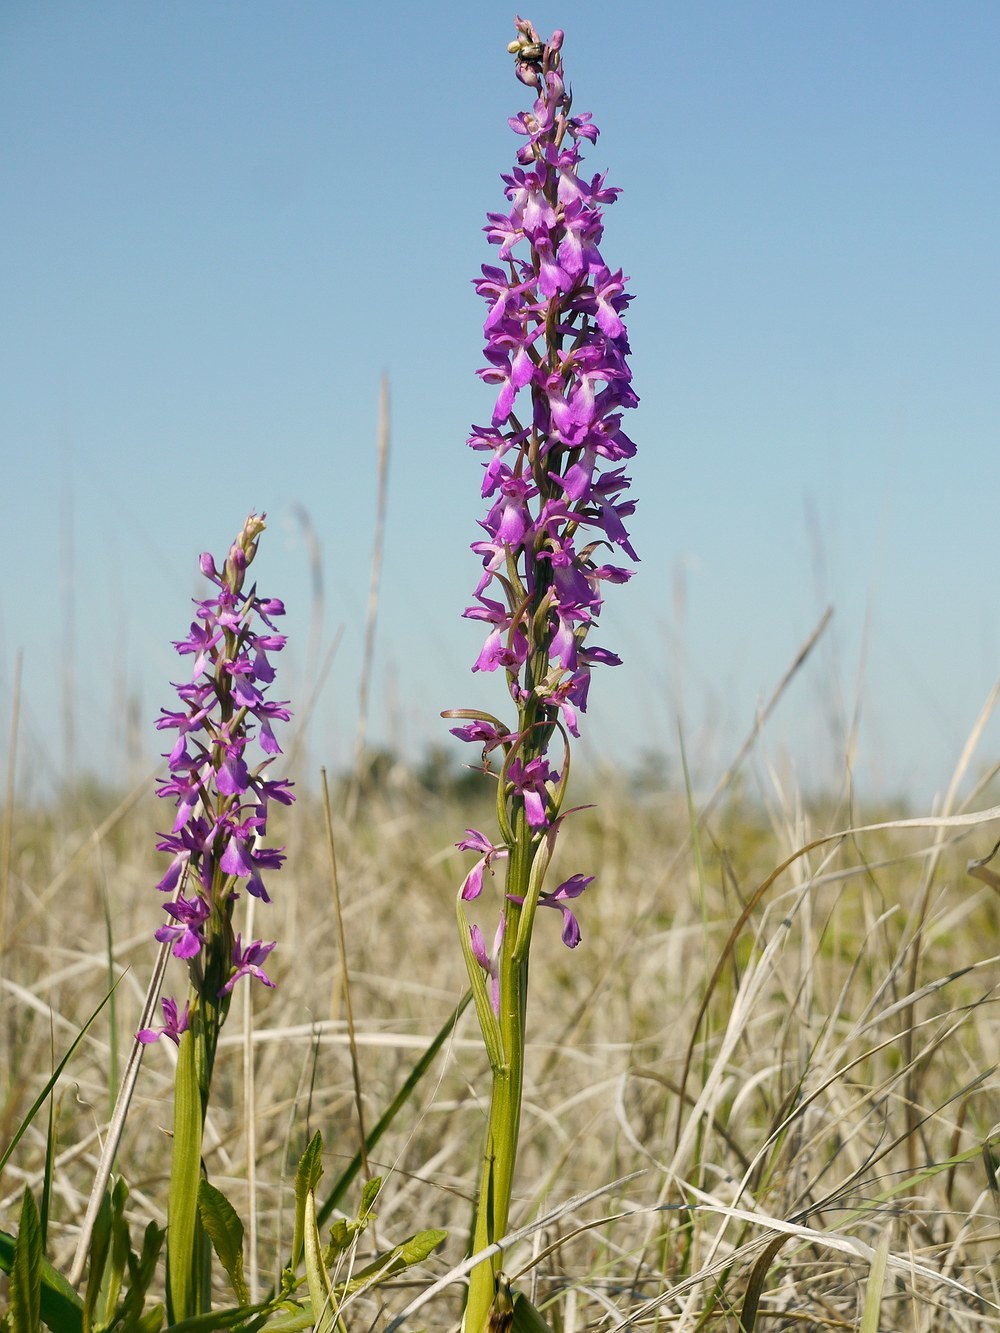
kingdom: Plantae
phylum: Tracheophyta
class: Liliopsida
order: Asparagales
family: Orchidaceae
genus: Anacamptis
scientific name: Anacamptis palustris
